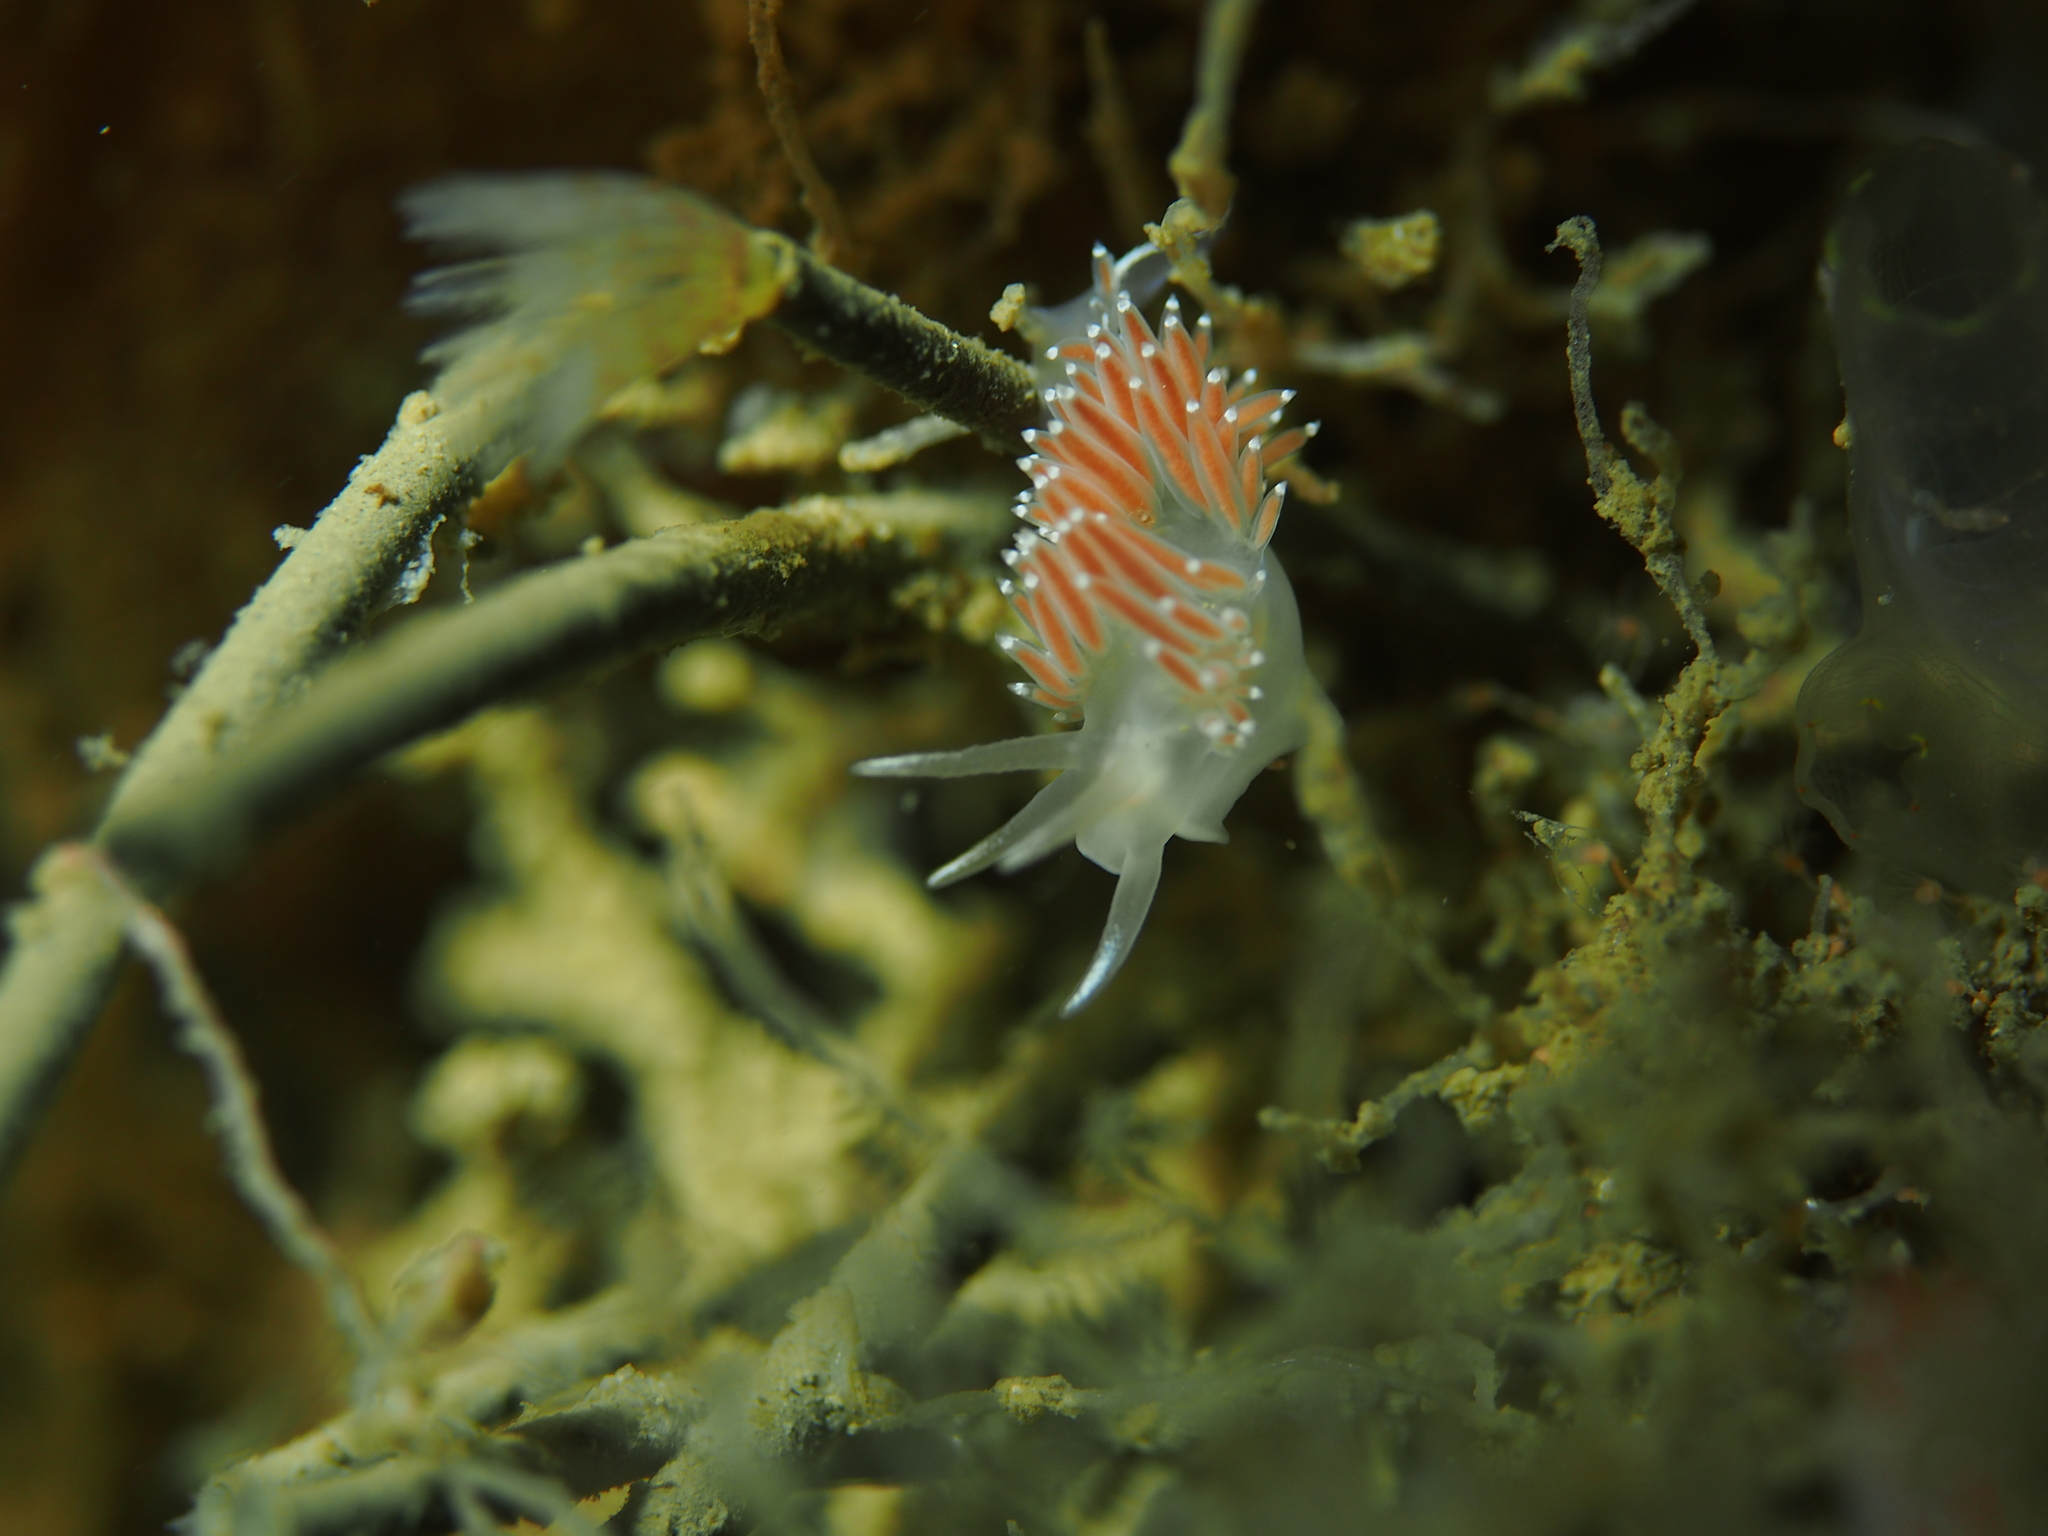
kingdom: Animalia
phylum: Mollusca
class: Gastropoda
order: Nudibranchia
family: Coryphellidae
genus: Coryphella
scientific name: Coryphella verrucosa
